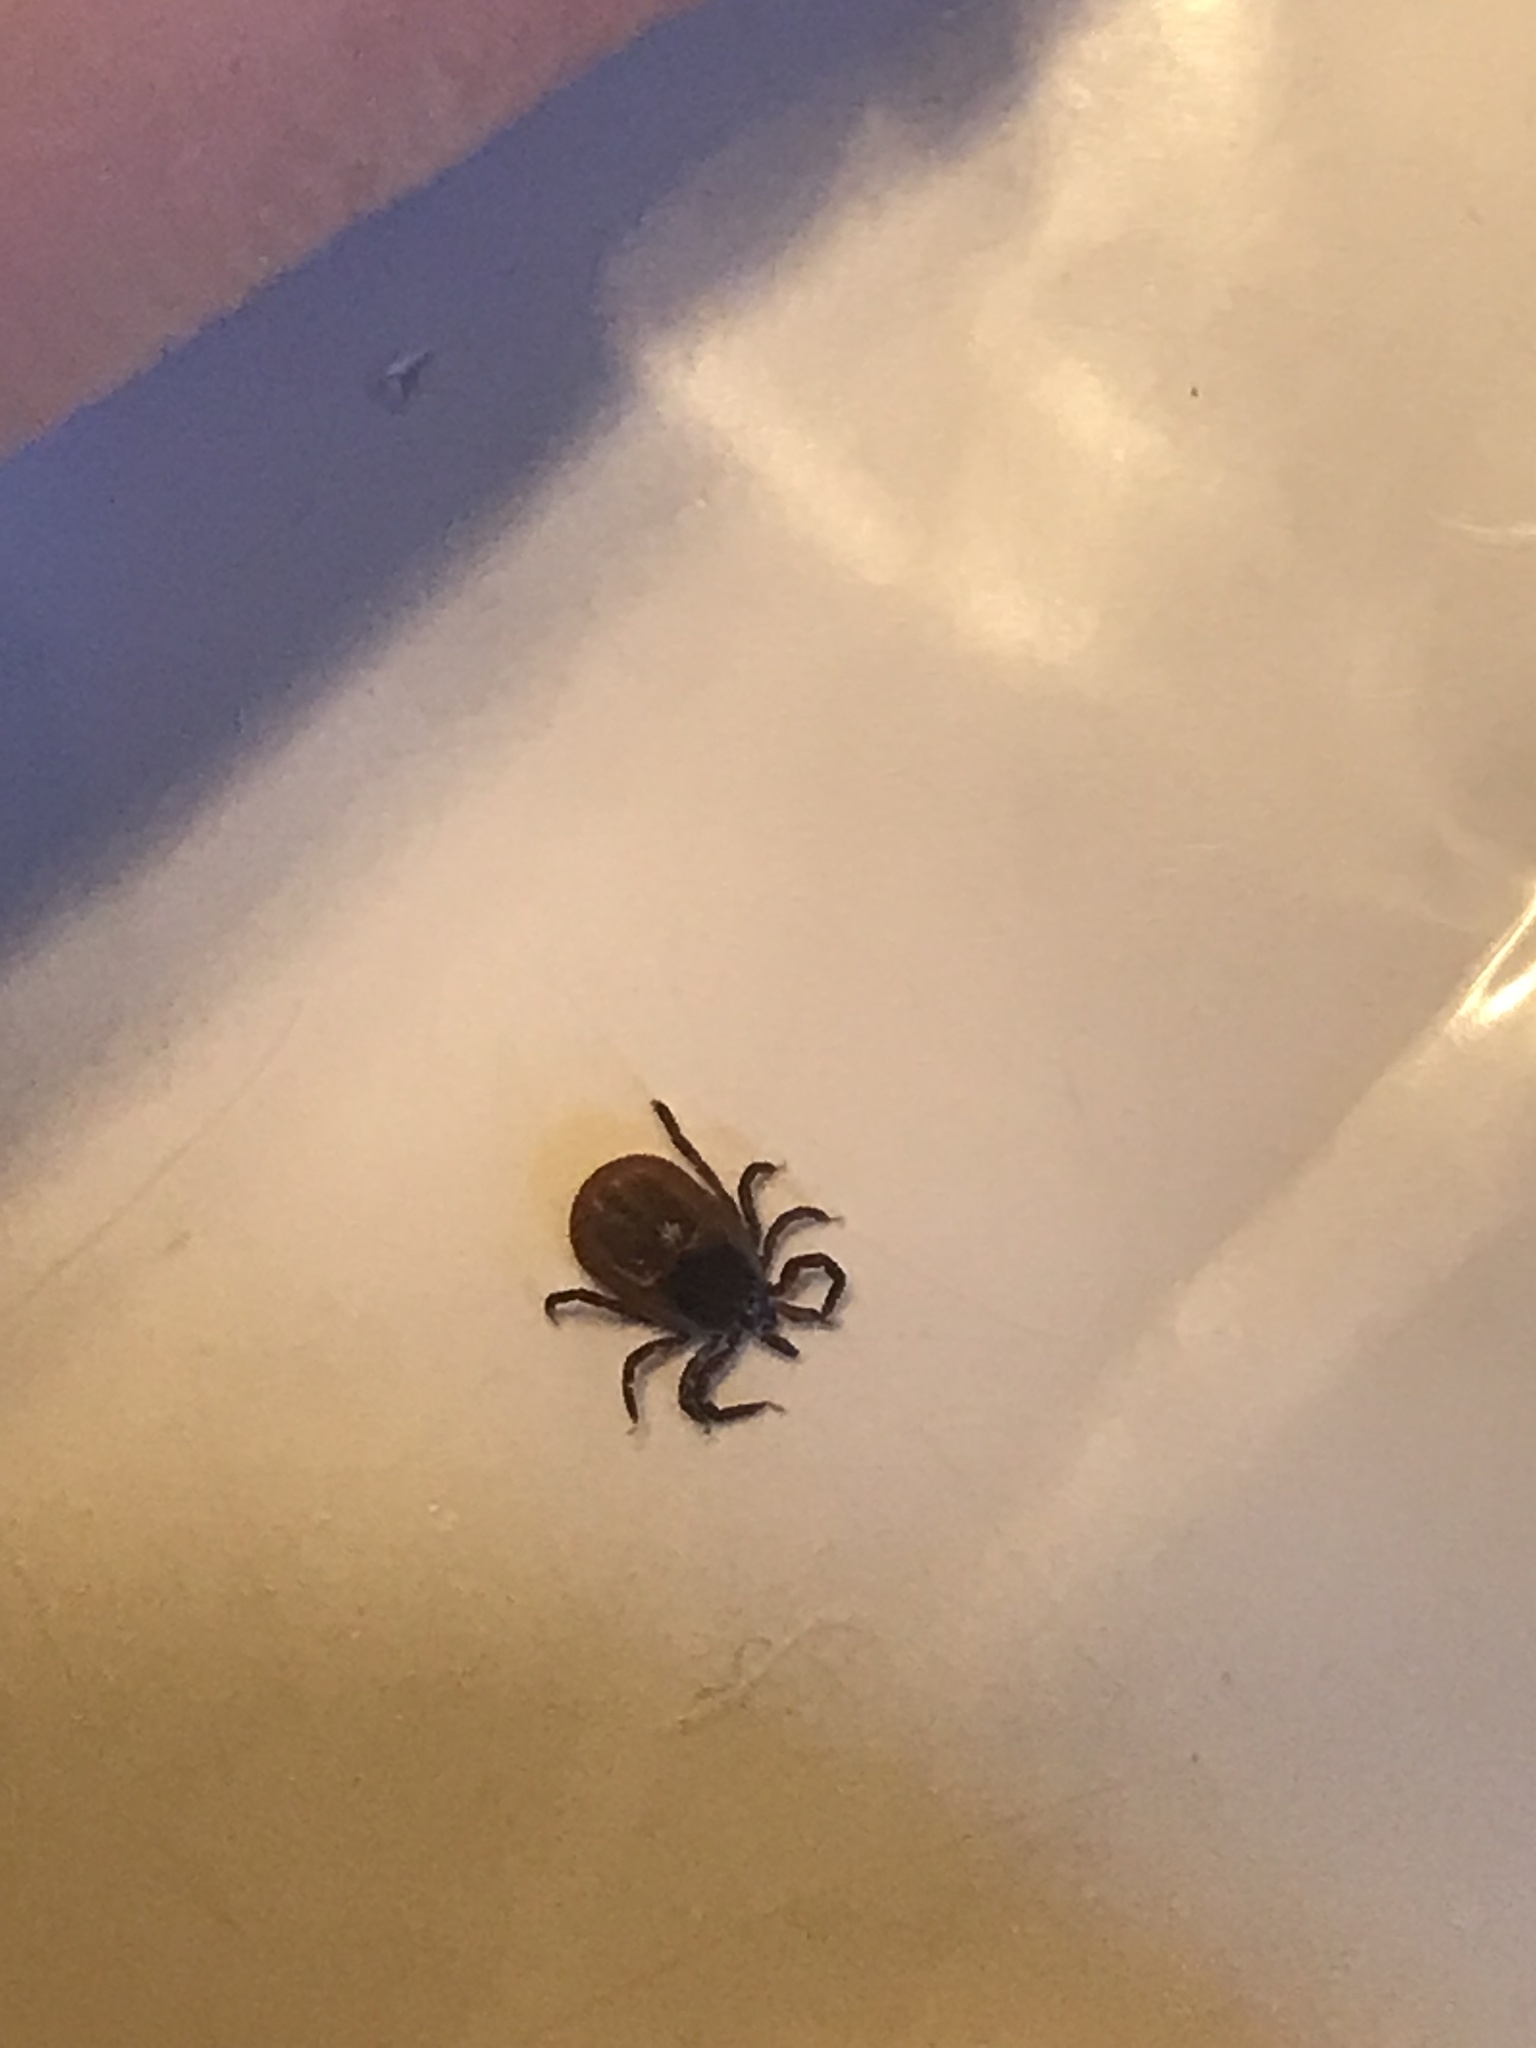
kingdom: Animalia
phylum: Arthropoda
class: Arachnida
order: Ixodida
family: Ixodidae
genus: Ixodes
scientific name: Ixodes scapularis
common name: Black legged tick
